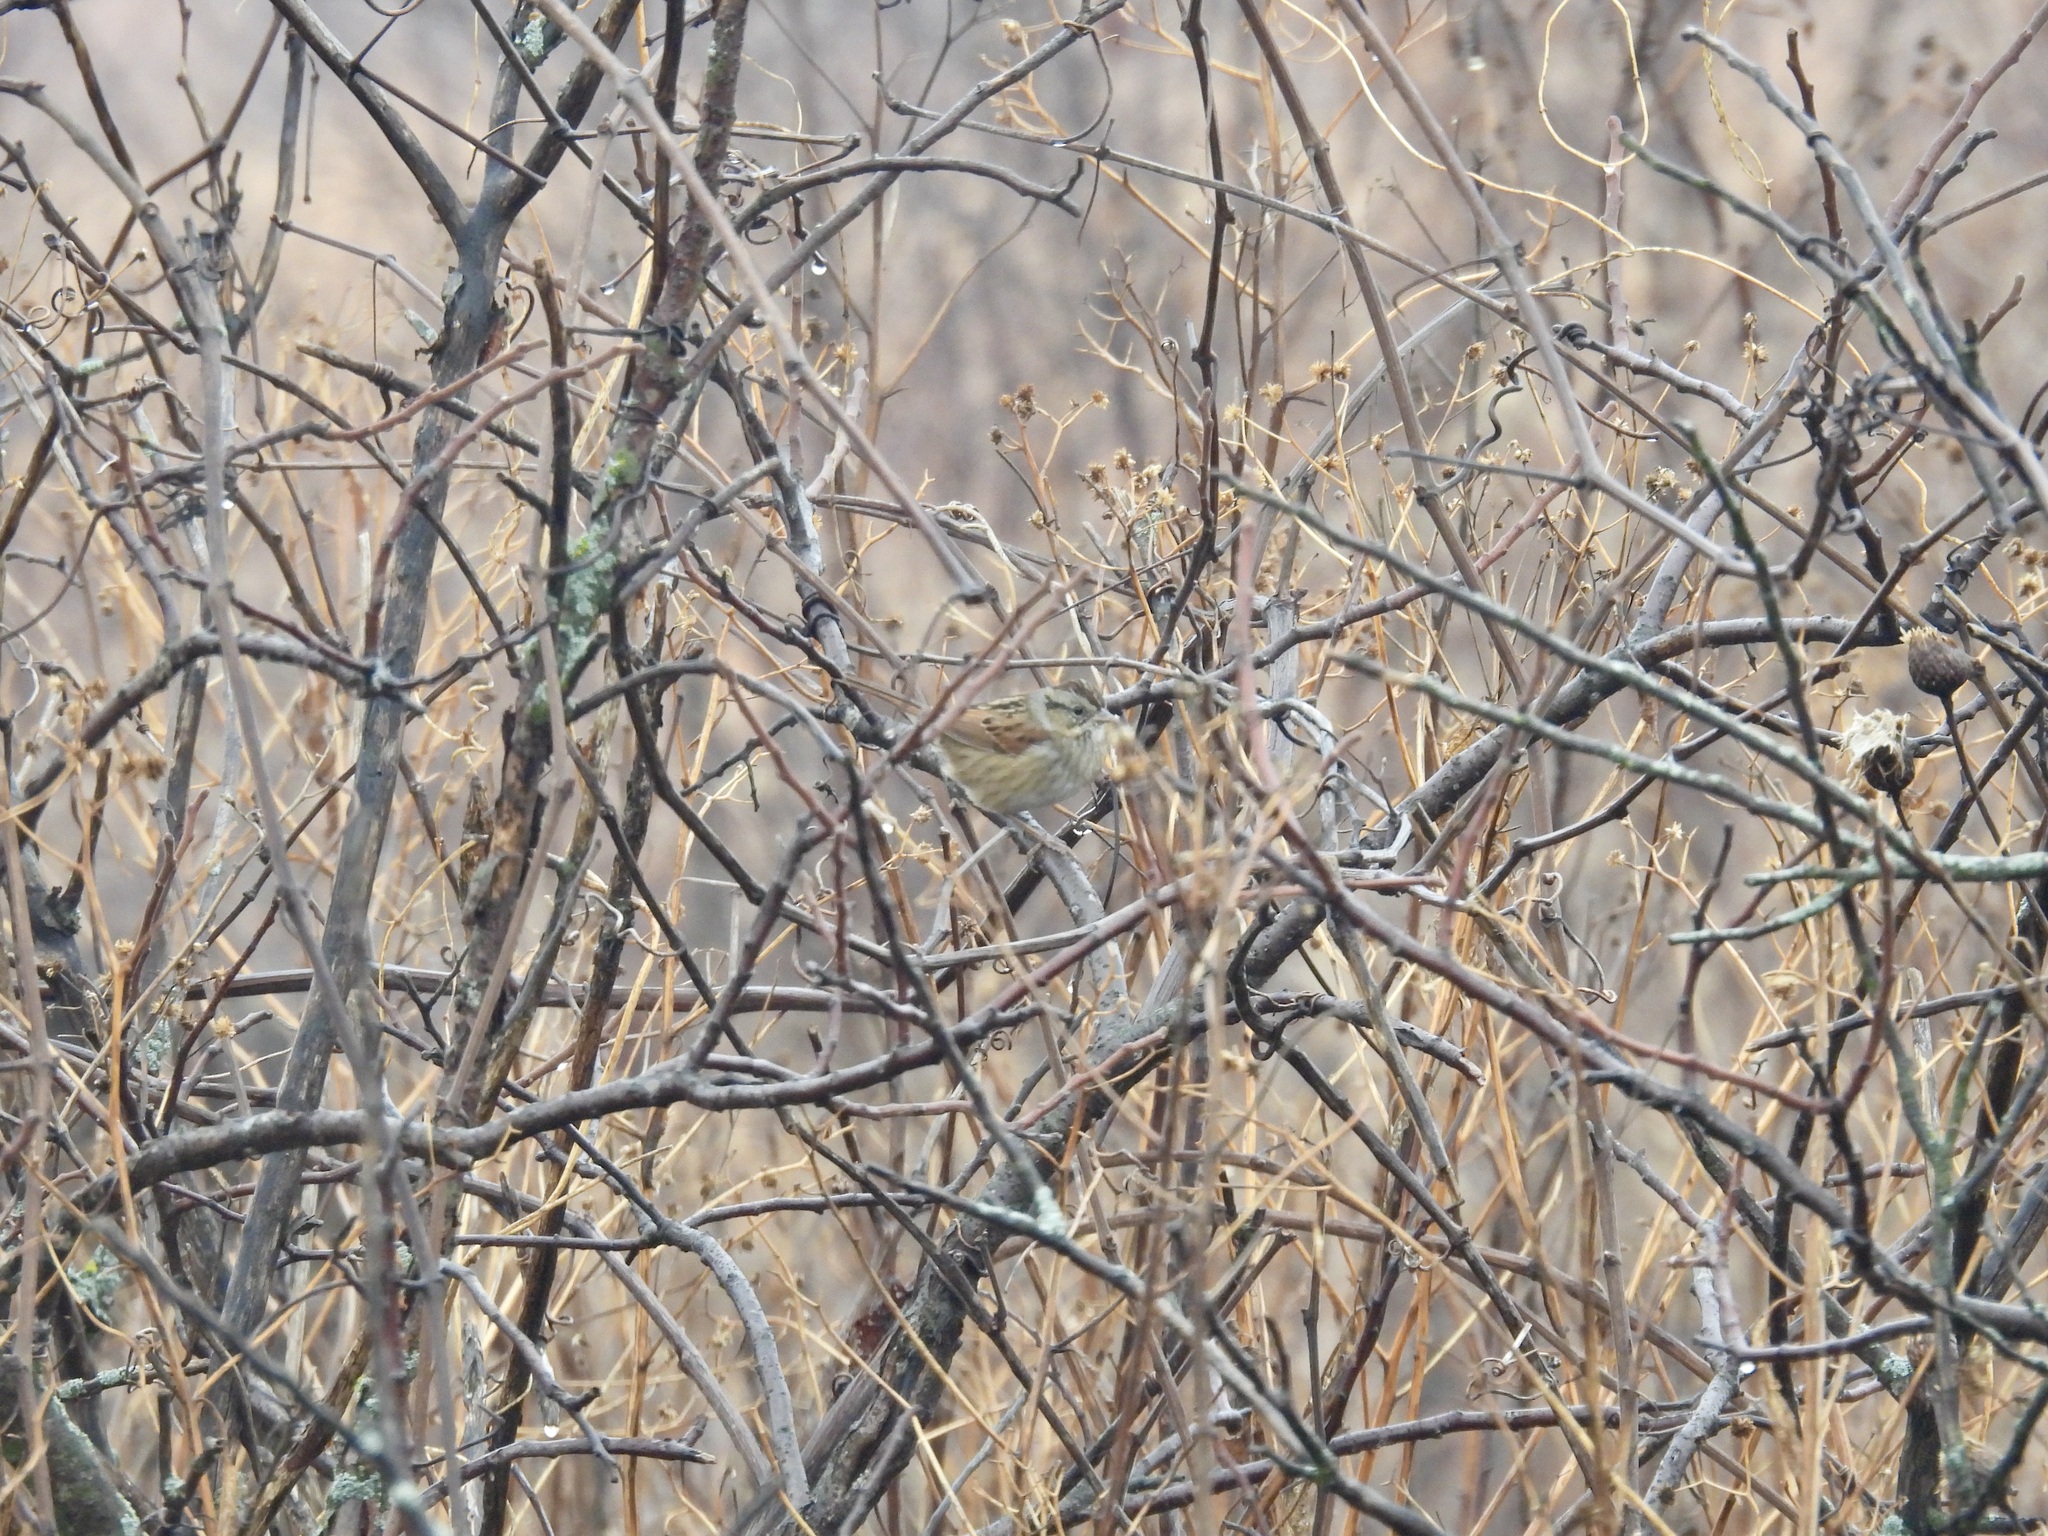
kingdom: Animalia
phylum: Chordata
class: Aves
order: Passeriformes
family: Passerellidae
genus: Melospiza
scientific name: Melospiza georgiana
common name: Swamp sparrow
